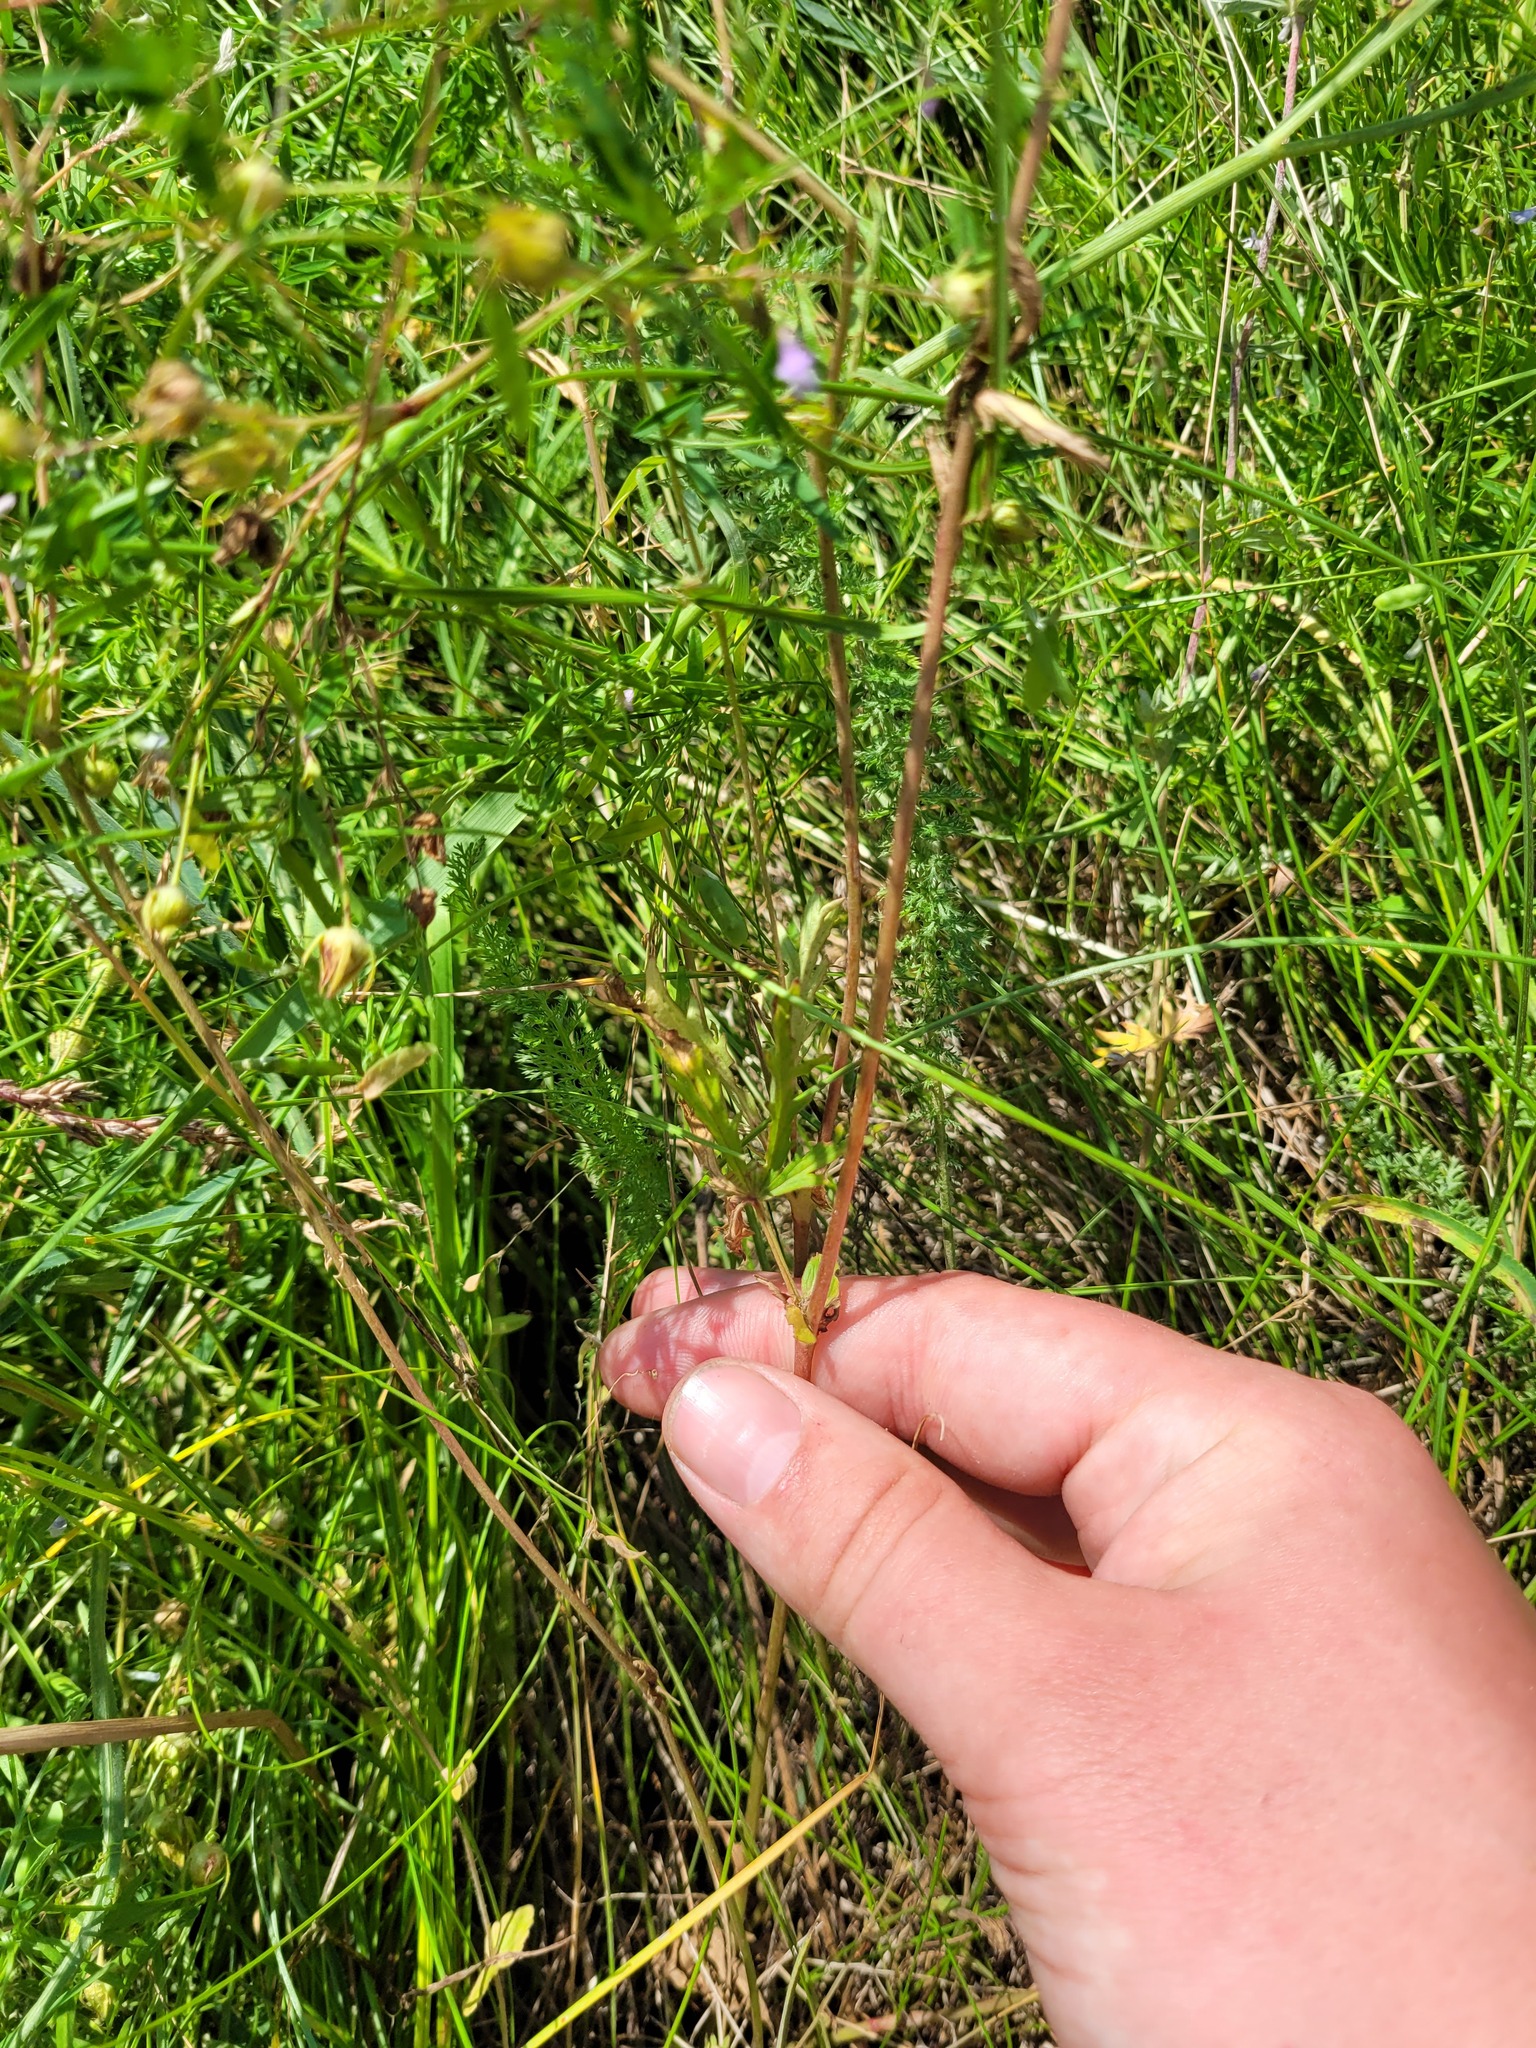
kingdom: Plantae
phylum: Tracheophyta
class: Magnoliopsida
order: Rosales
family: Rosaceae
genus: Potentilla
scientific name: Potentilla longipes
